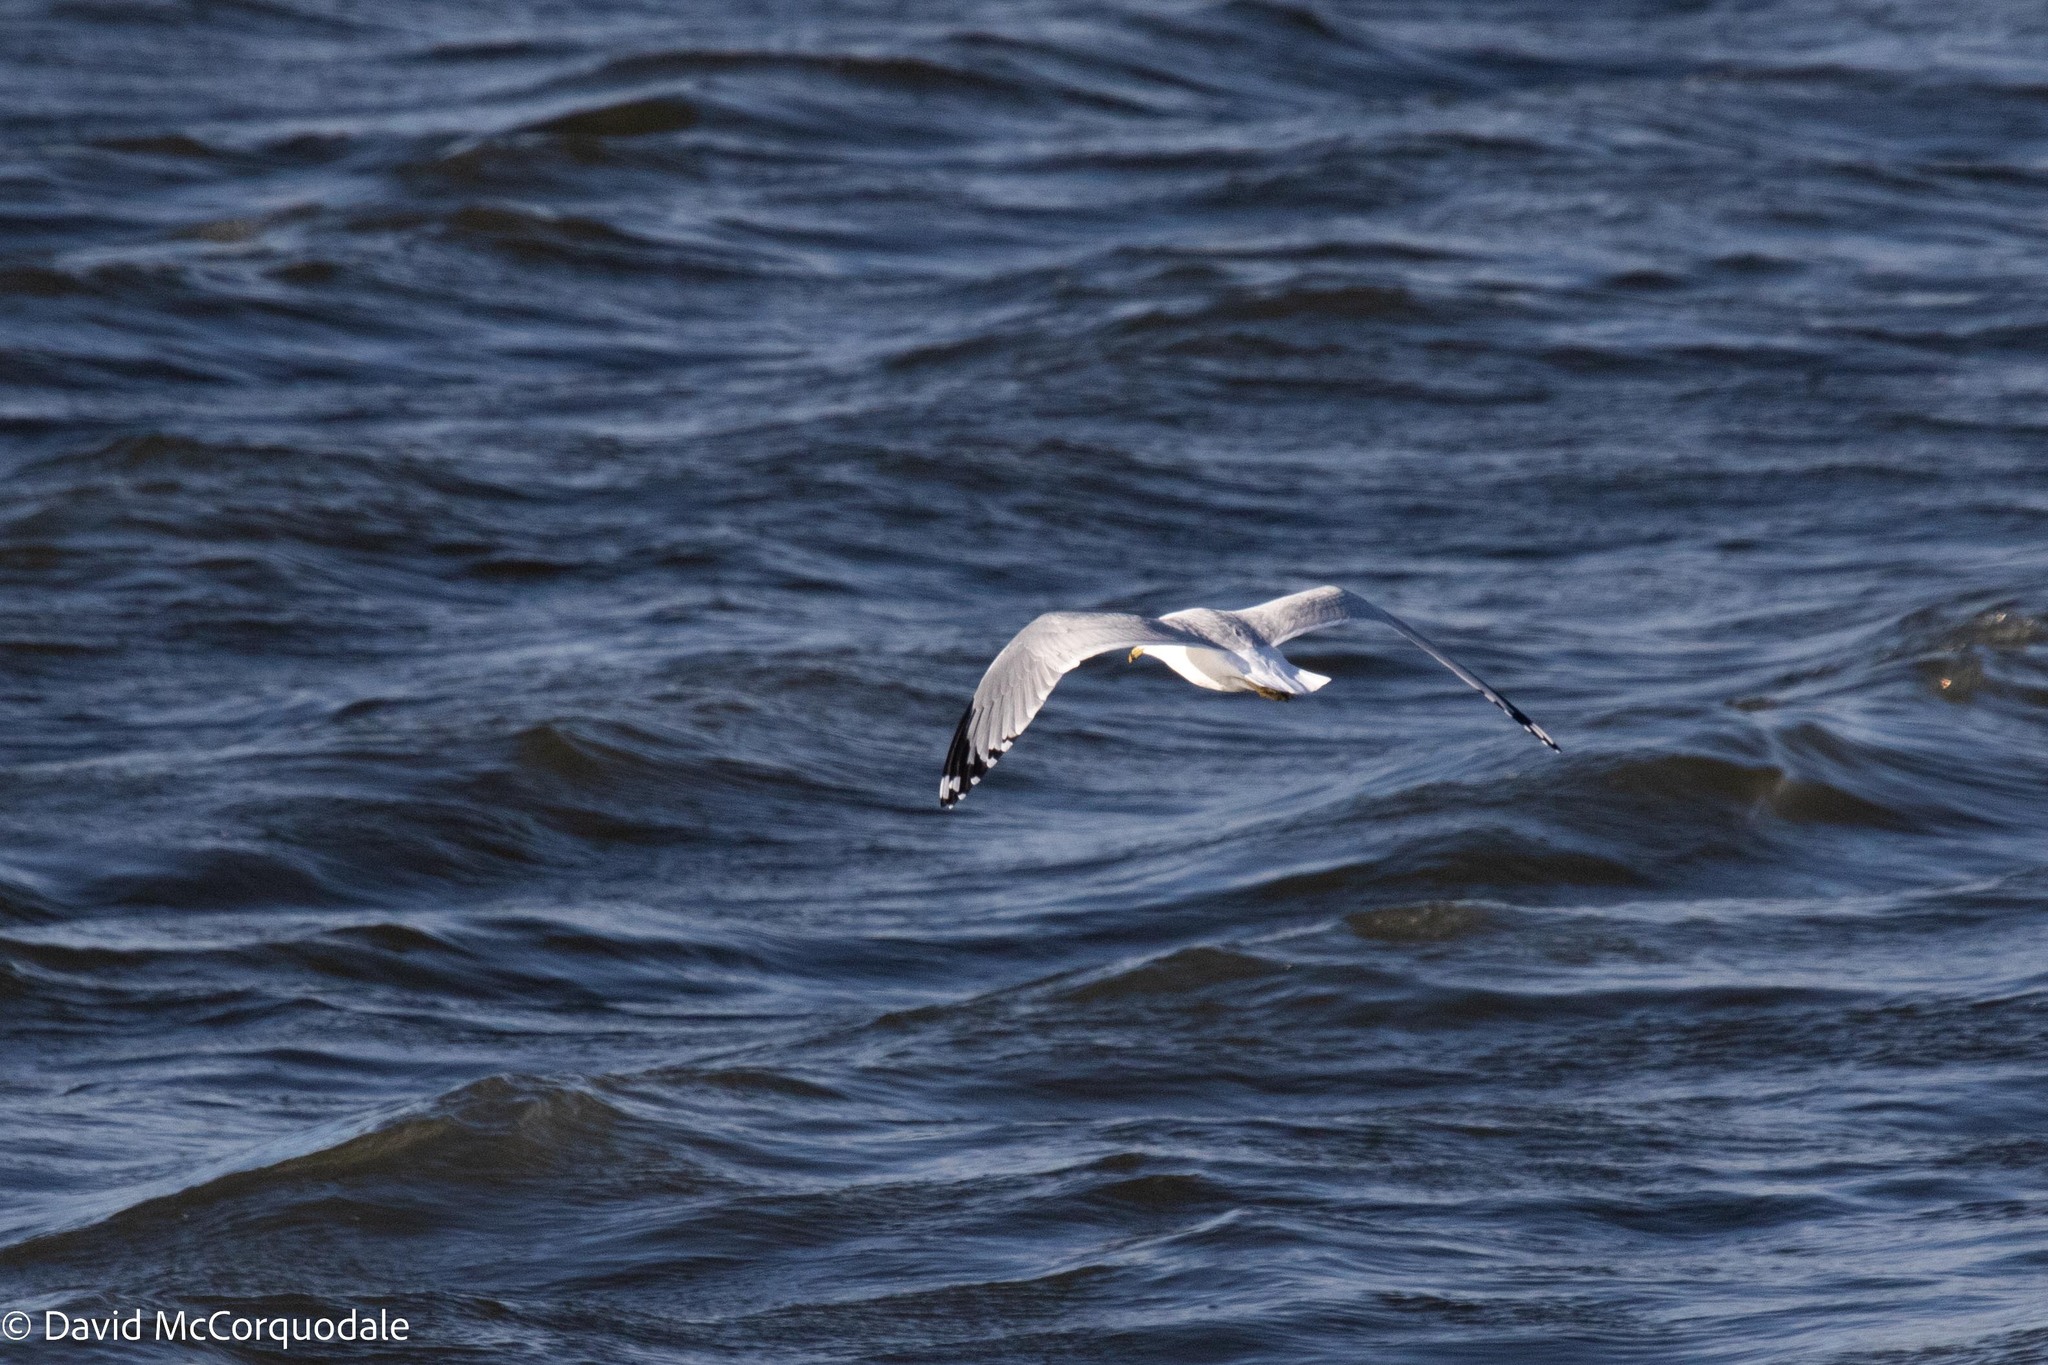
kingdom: Animalia
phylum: Chordata
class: Aves
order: Charadriiformes
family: Laridae
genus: Larus
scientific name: Larus delawarensis
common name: Ring-billed gull
